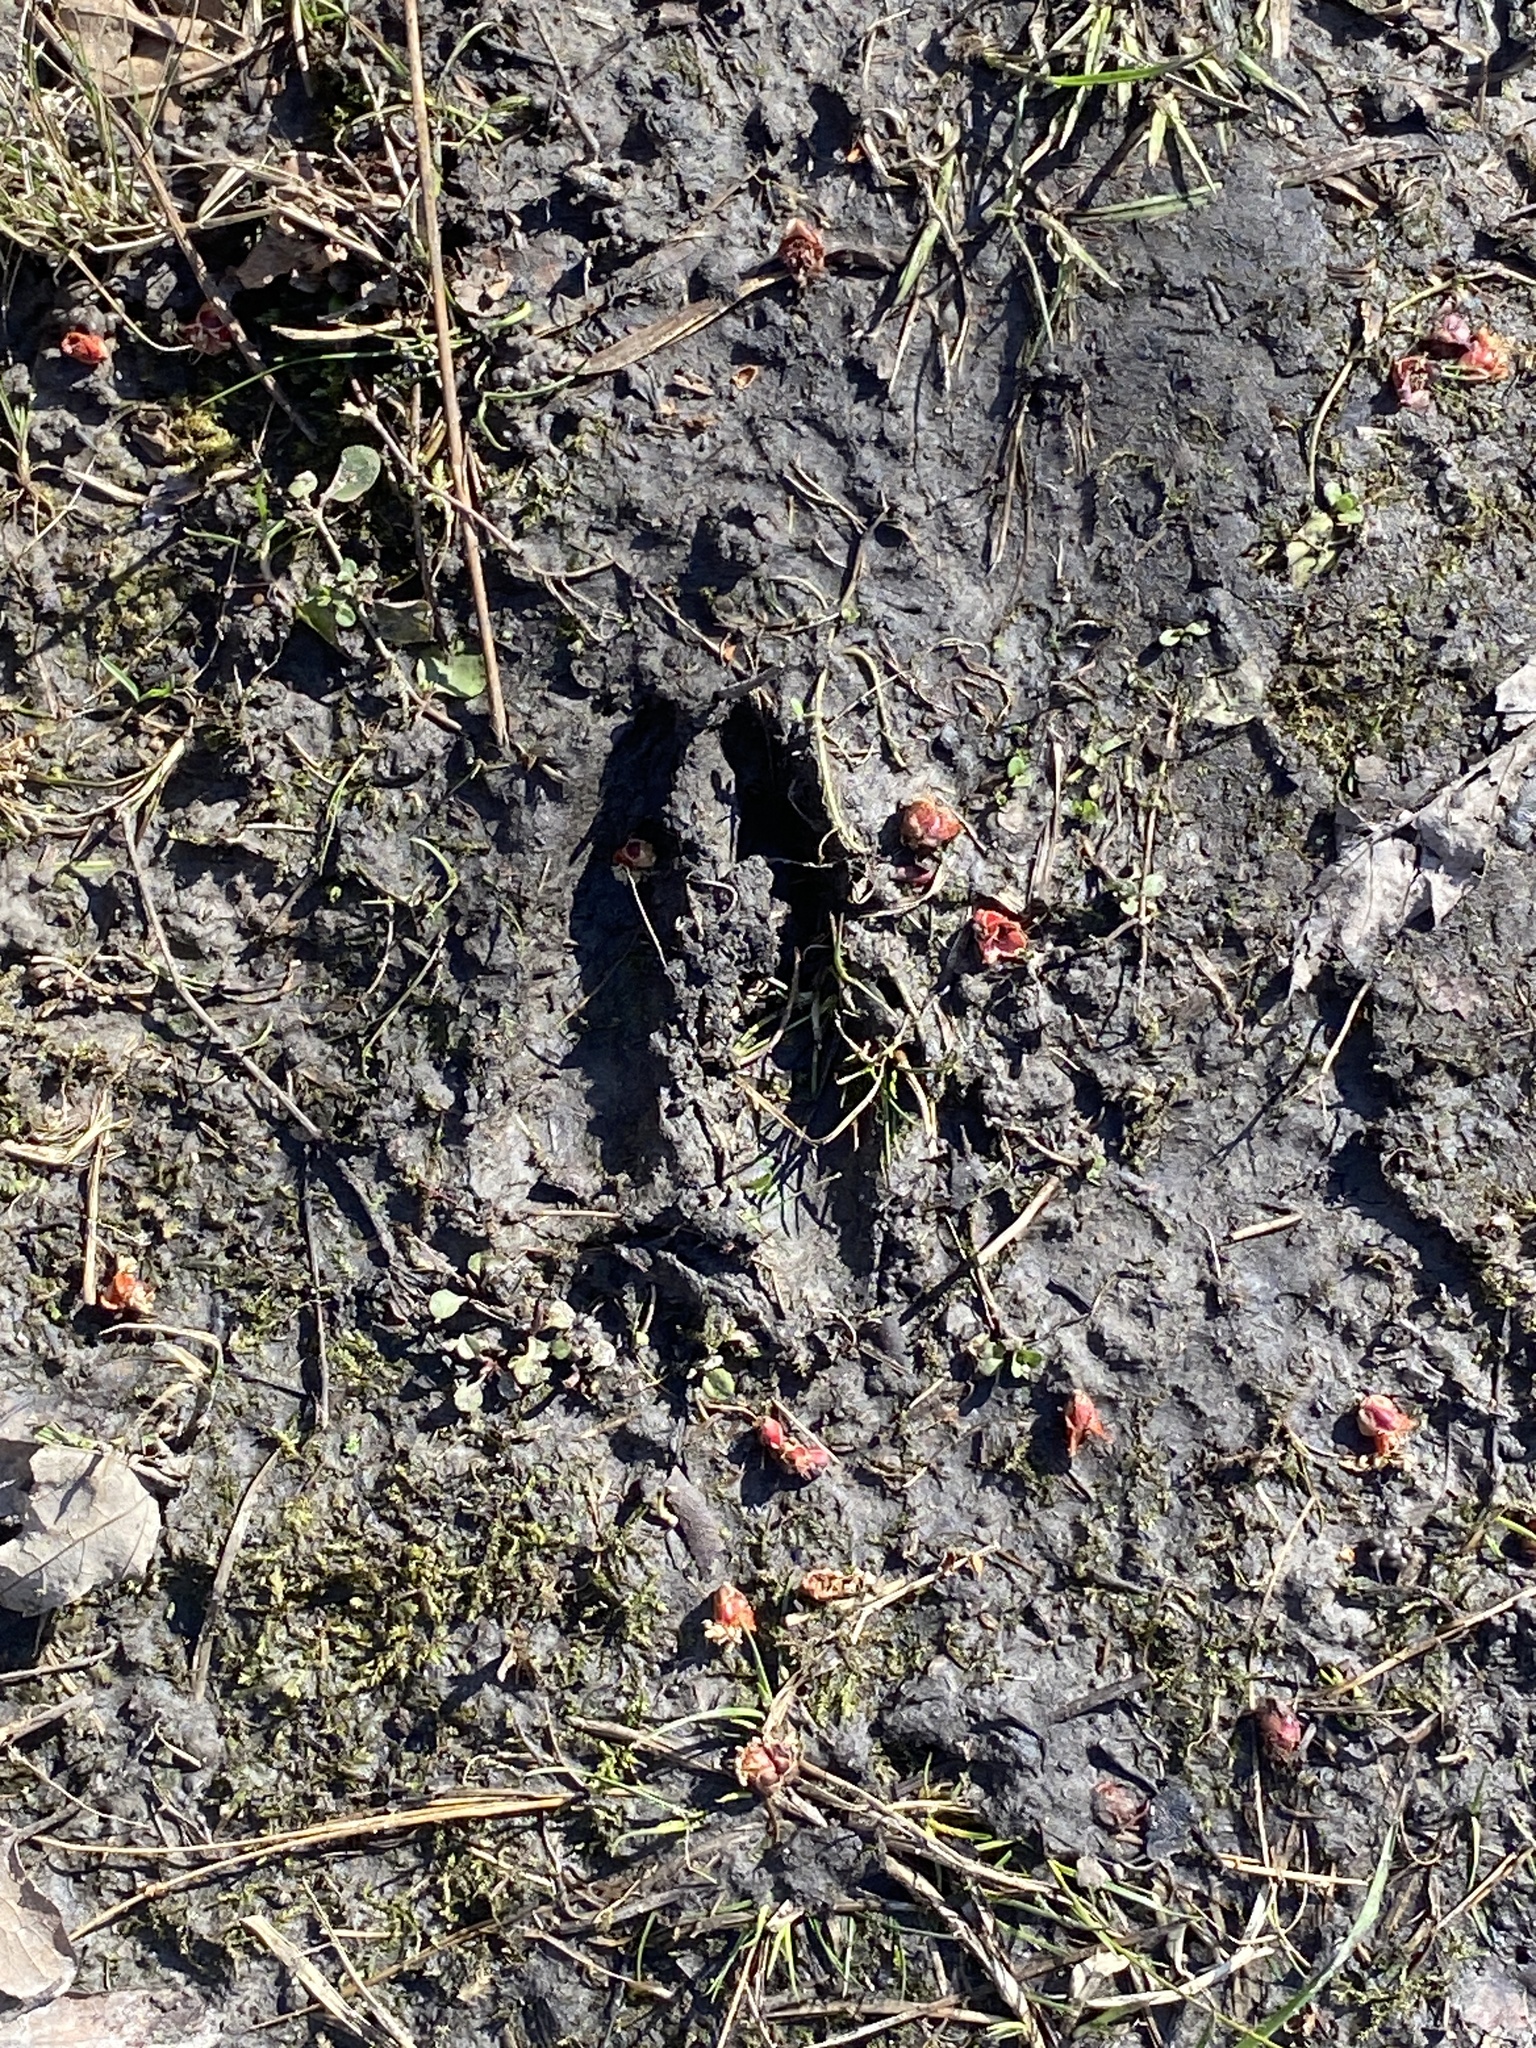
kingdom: Animalia
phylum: Chordata
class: Mammalia
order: Artiodactyla
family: Cervidae
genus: Odocoileus
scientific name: Odocoileus virginianus
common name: White-tailed deer
